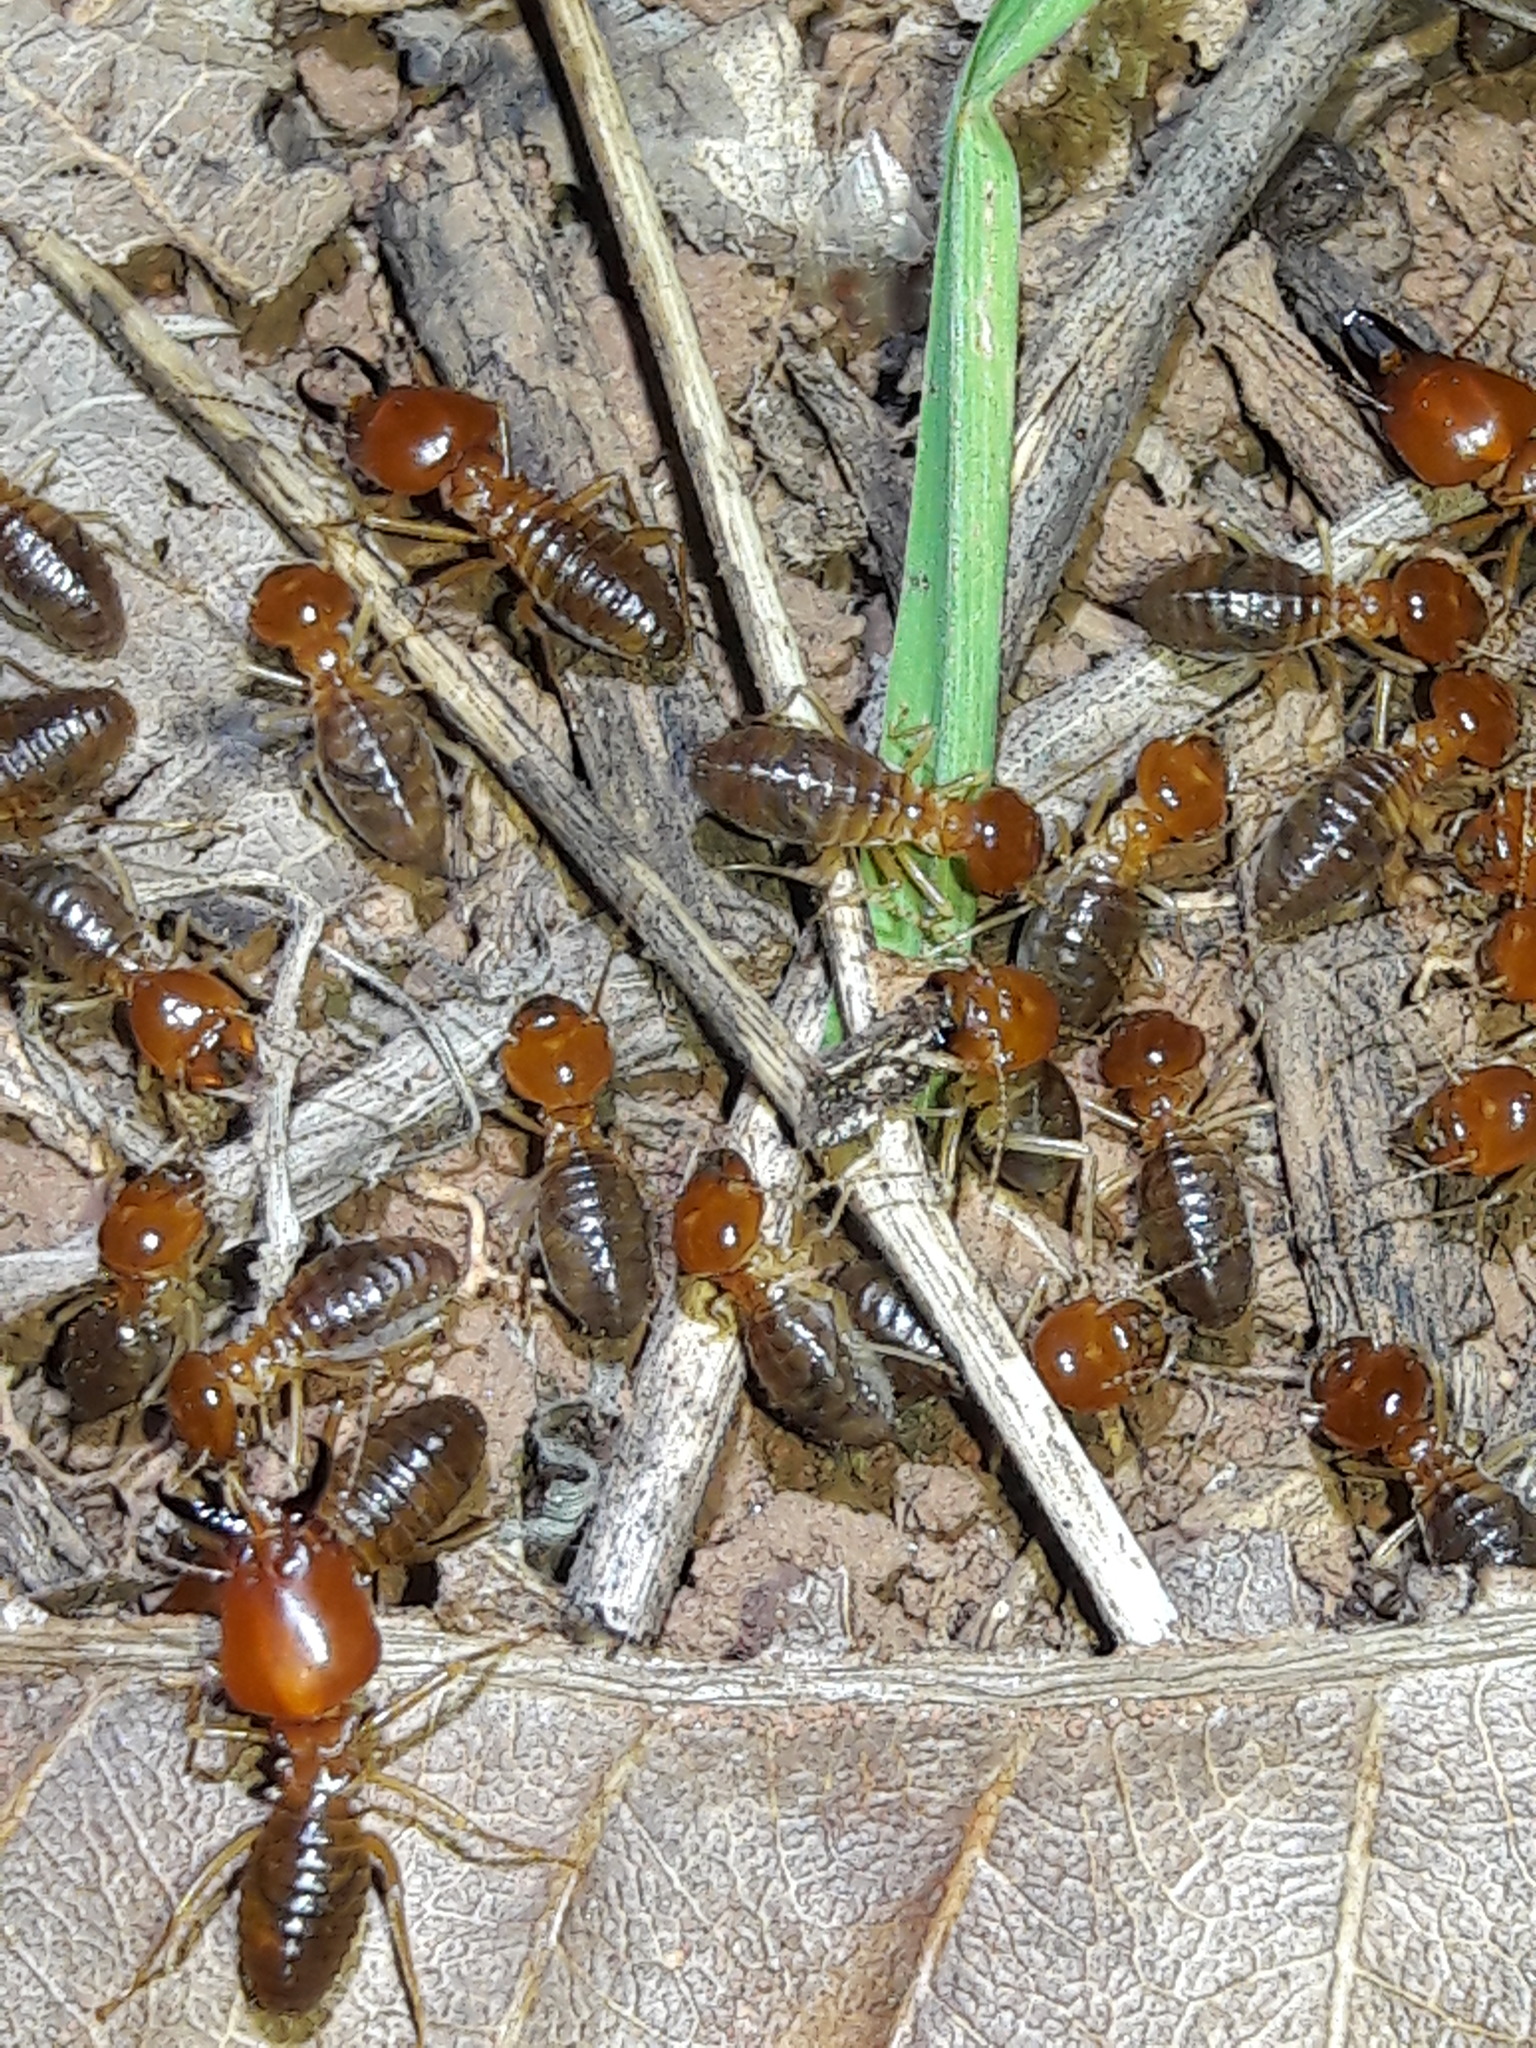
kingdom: Animalia
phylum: Arthropoda
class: Insecta
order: Blattodea
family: Termitidae
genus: Syntermes
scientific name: Syntermes molestus
